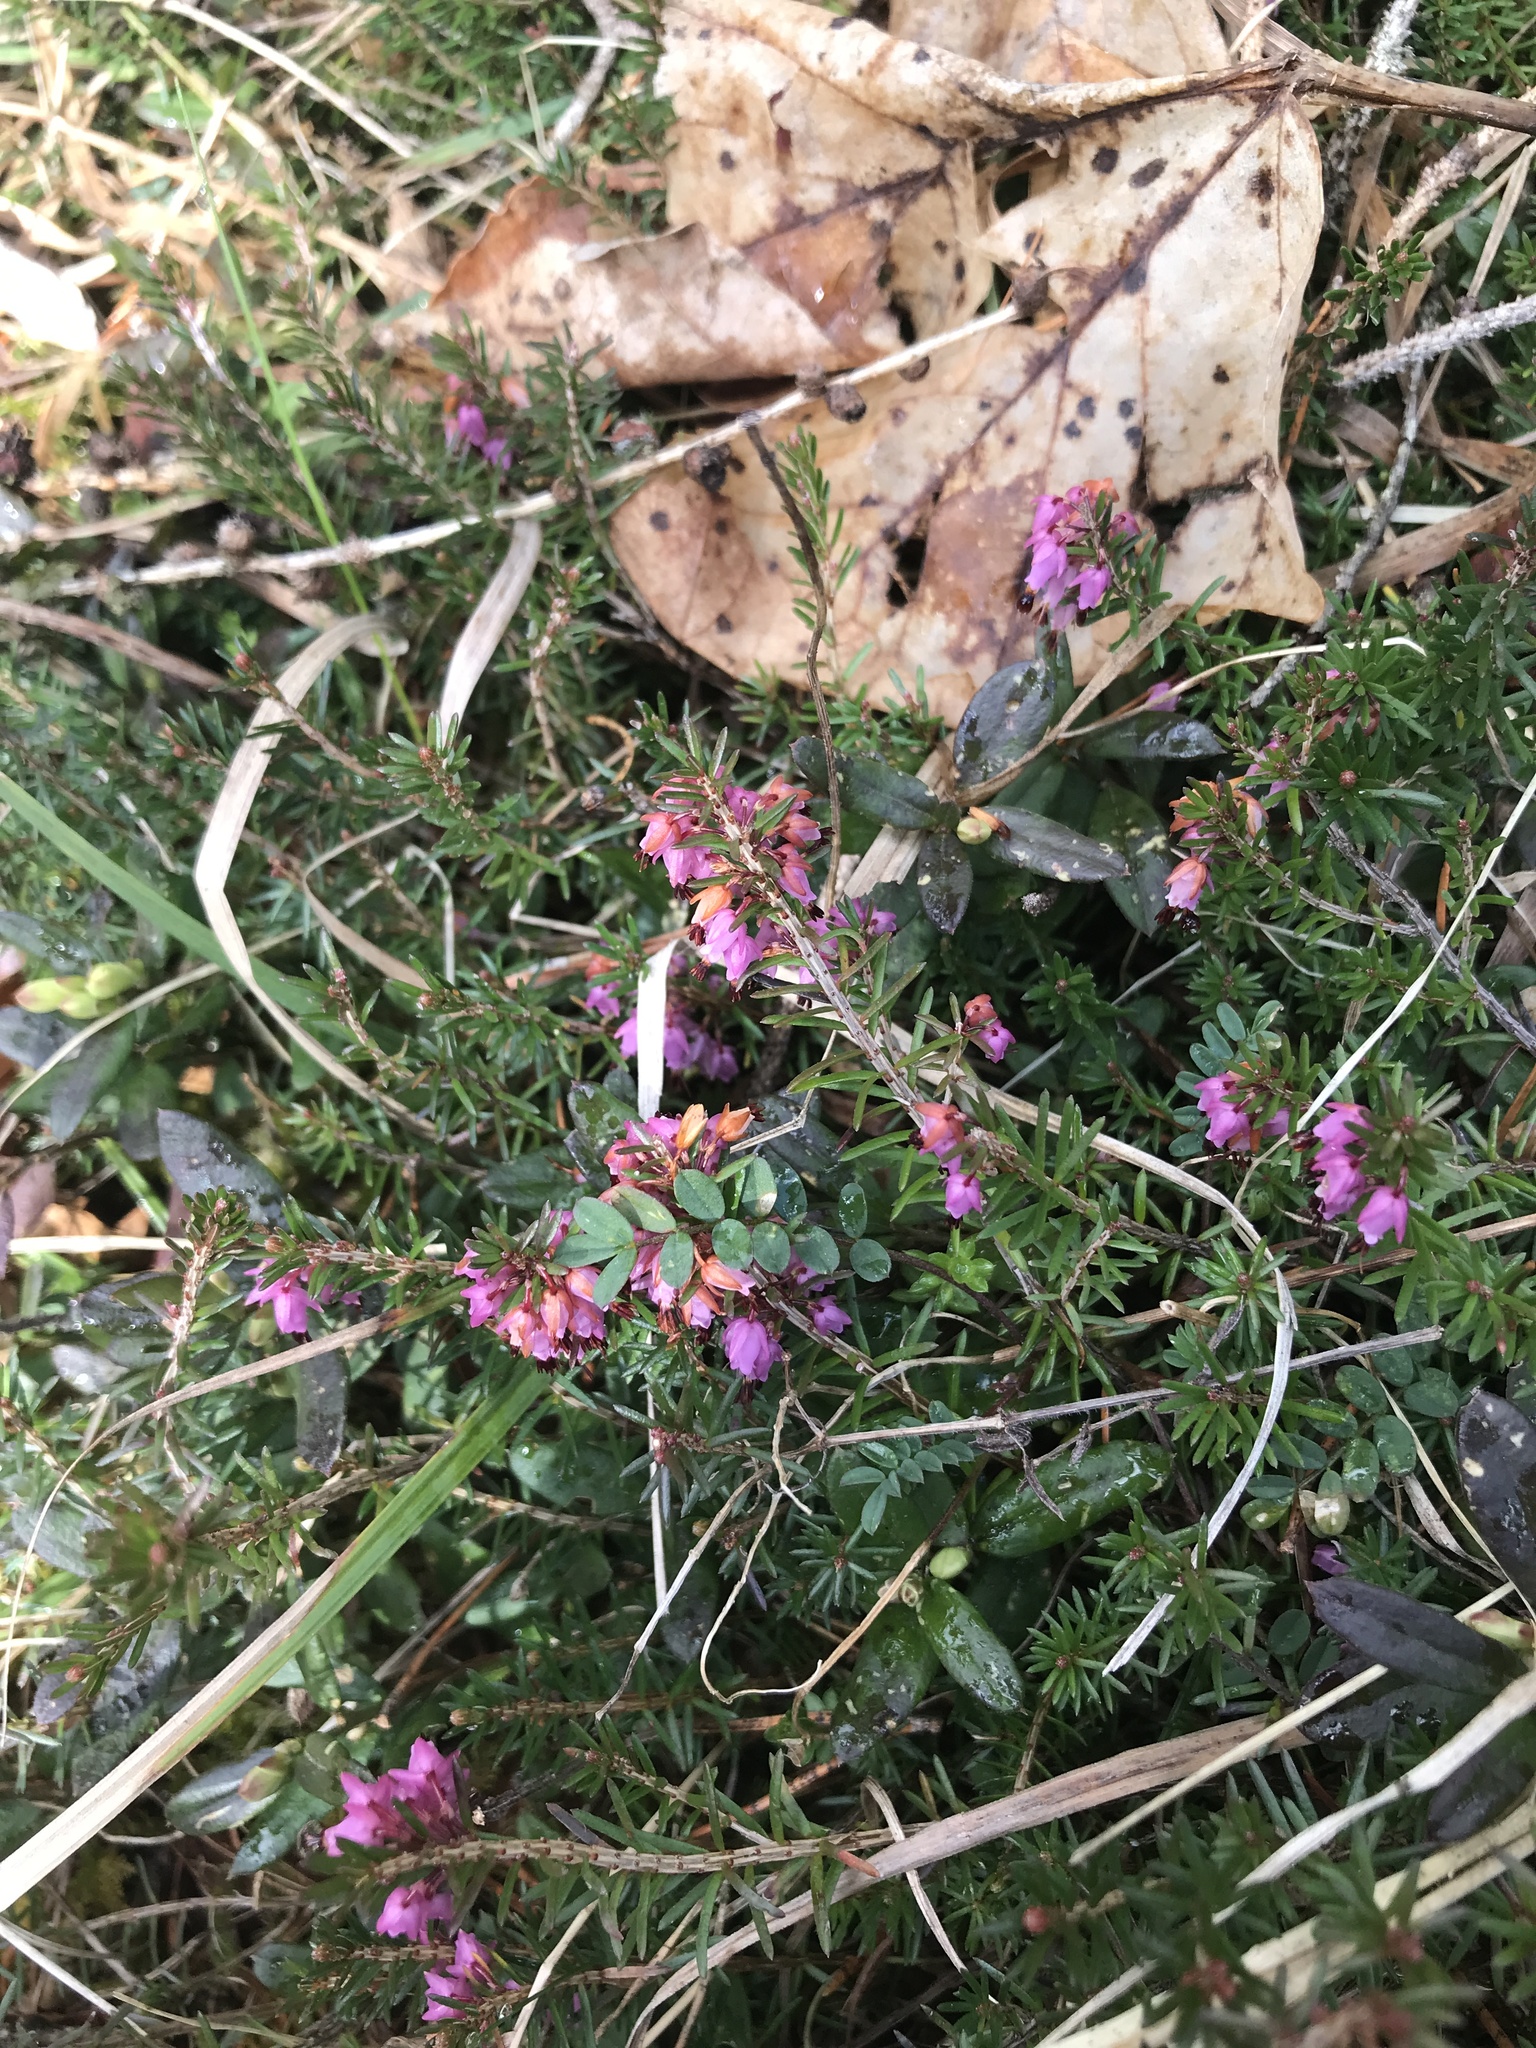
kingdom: Plantae
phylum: Tracheophyta
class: Magnoliopsida
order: Ericales
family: Ericaceae
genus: Erica
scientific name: Erica carnea
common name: Winter heath
